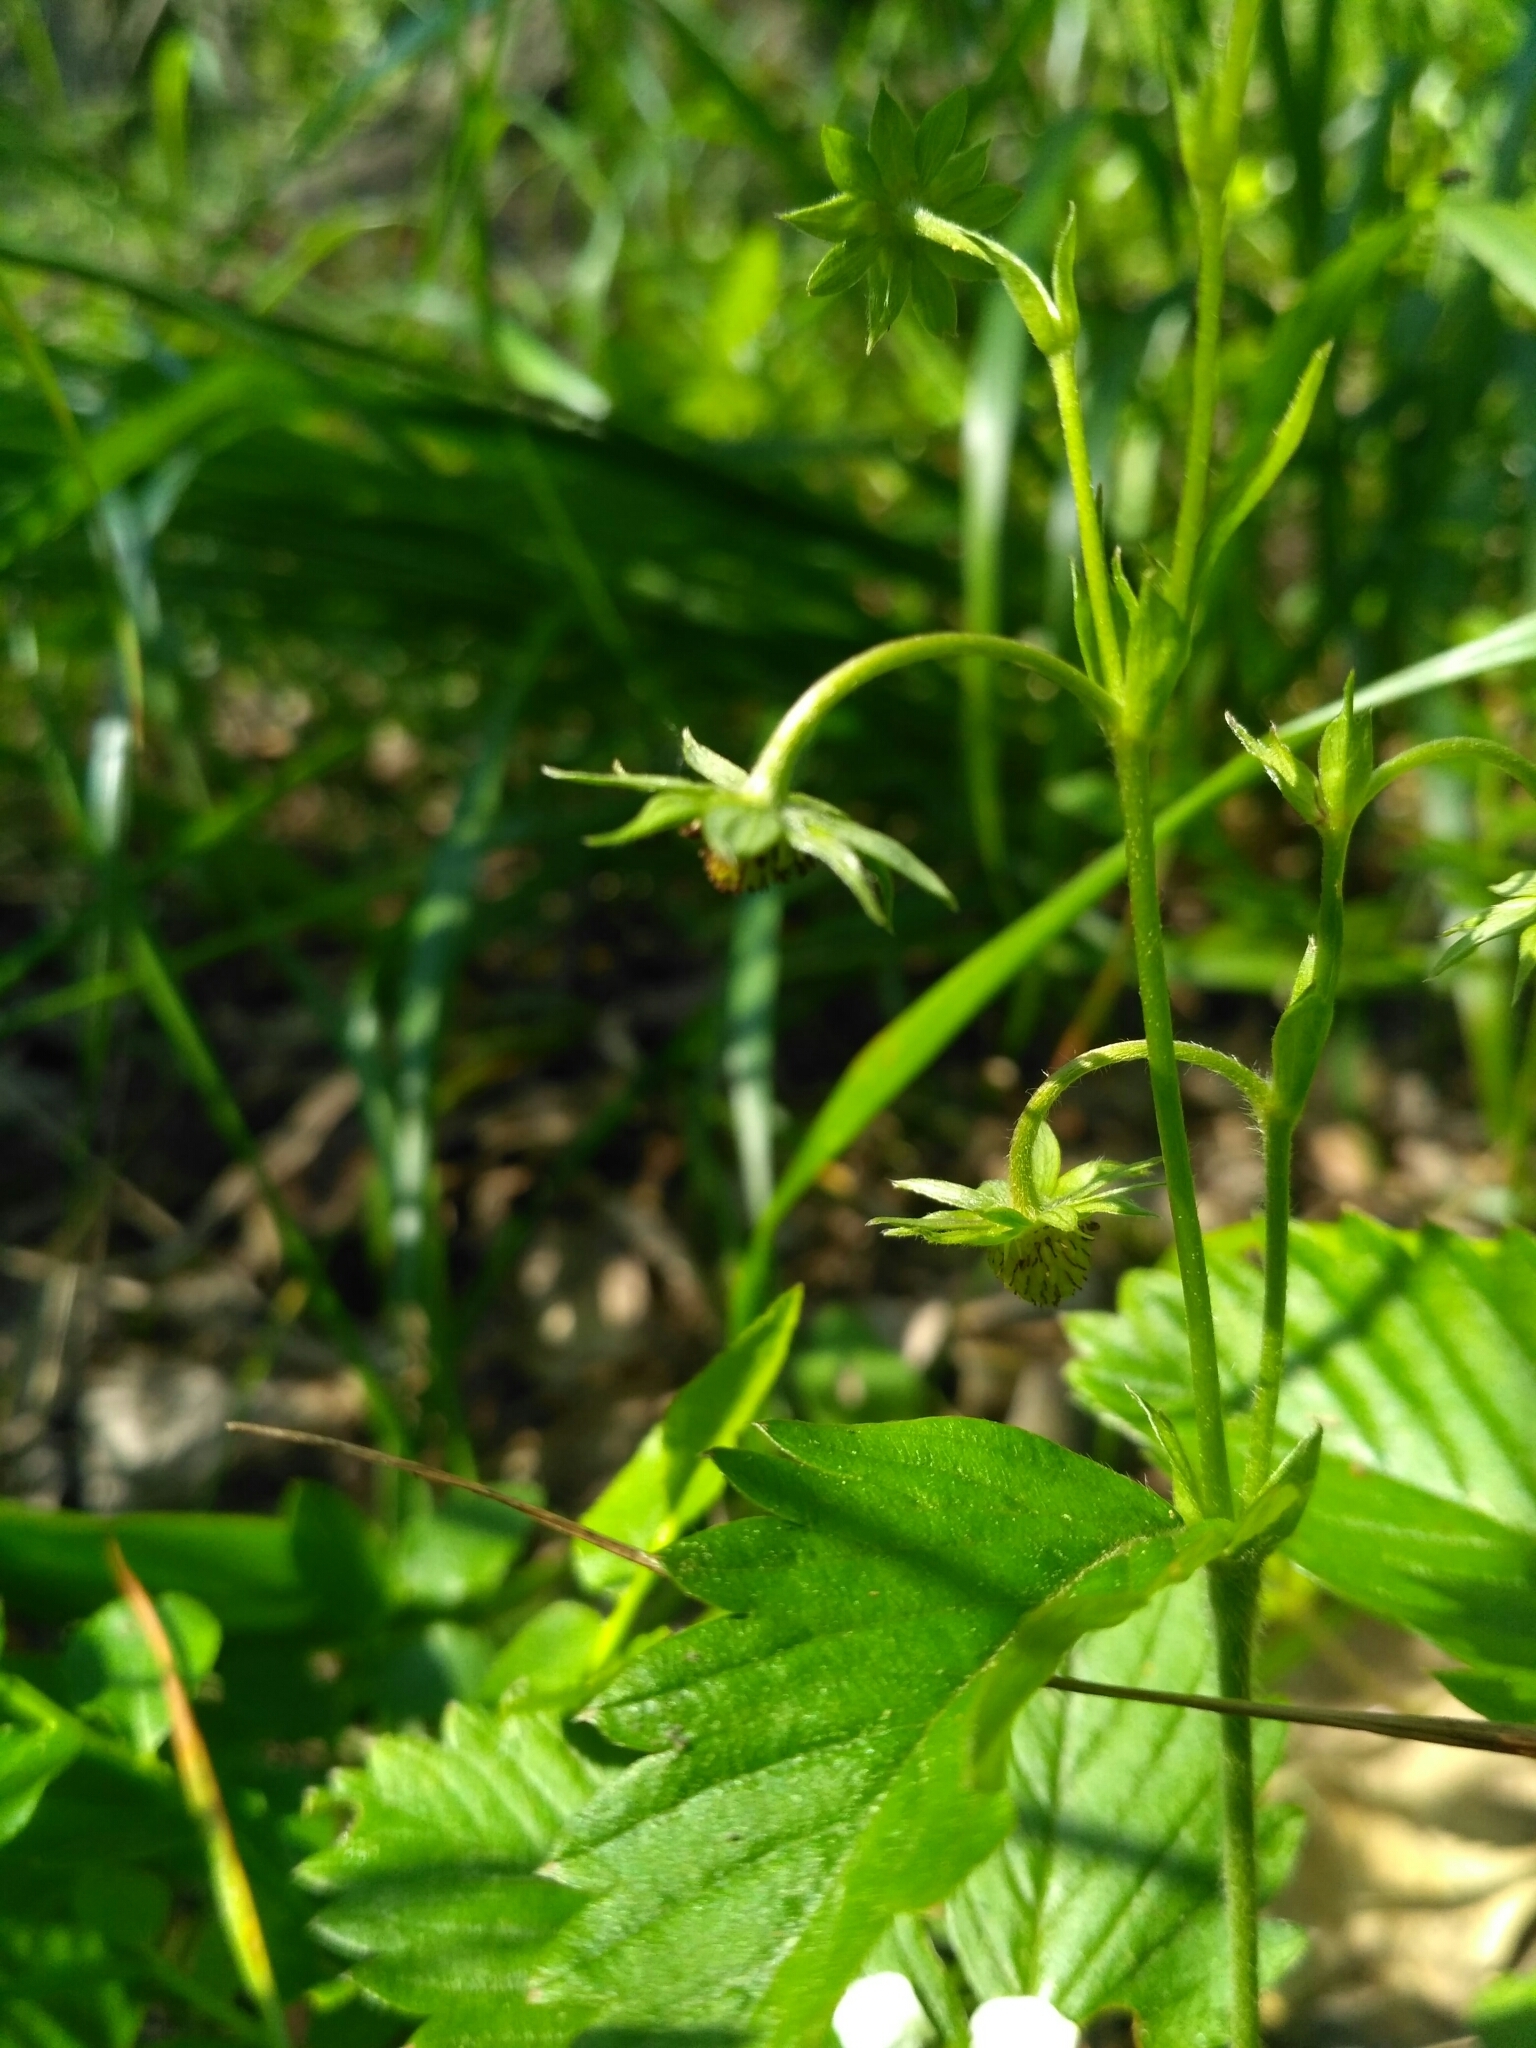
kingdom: Plantae
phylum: Tracheophyta
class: Magnoliopsida
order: Rosales
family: Rosaceae
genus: Fragaria
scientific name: Fragaria vesca
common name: Wild strawberry
